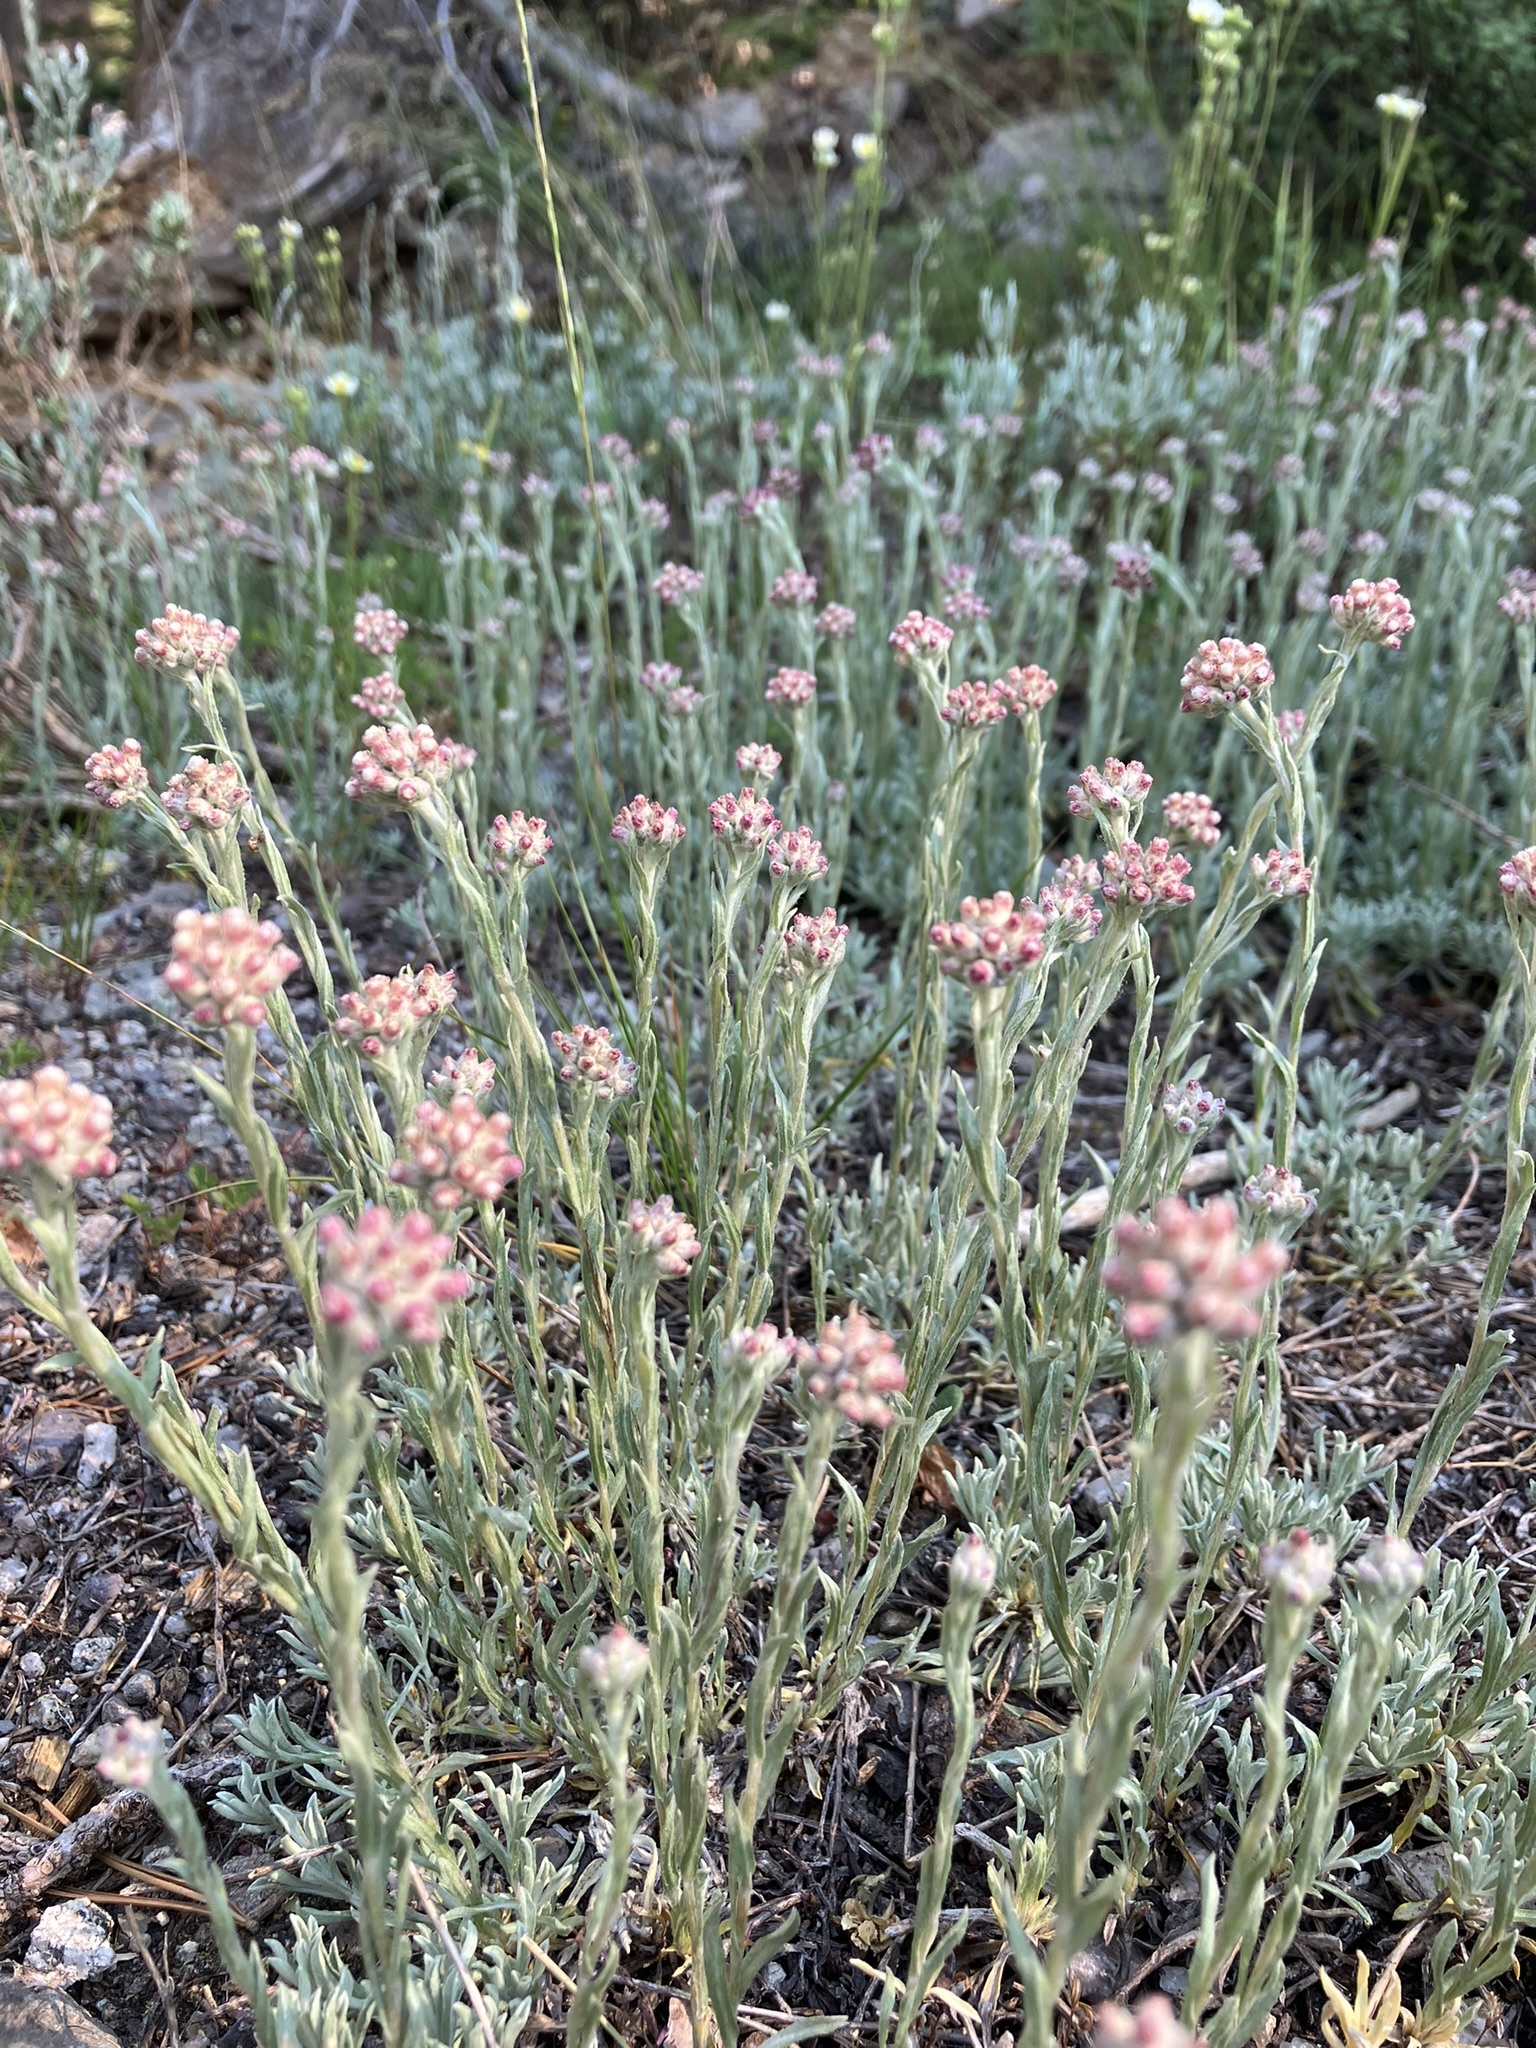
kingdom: Plantae
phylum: Tracheophyta
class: Magnoliopsida
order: Asterales
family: Asteraceae
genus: Antennaria
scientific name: Antennaria rosea
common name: Rosy pussytoes
